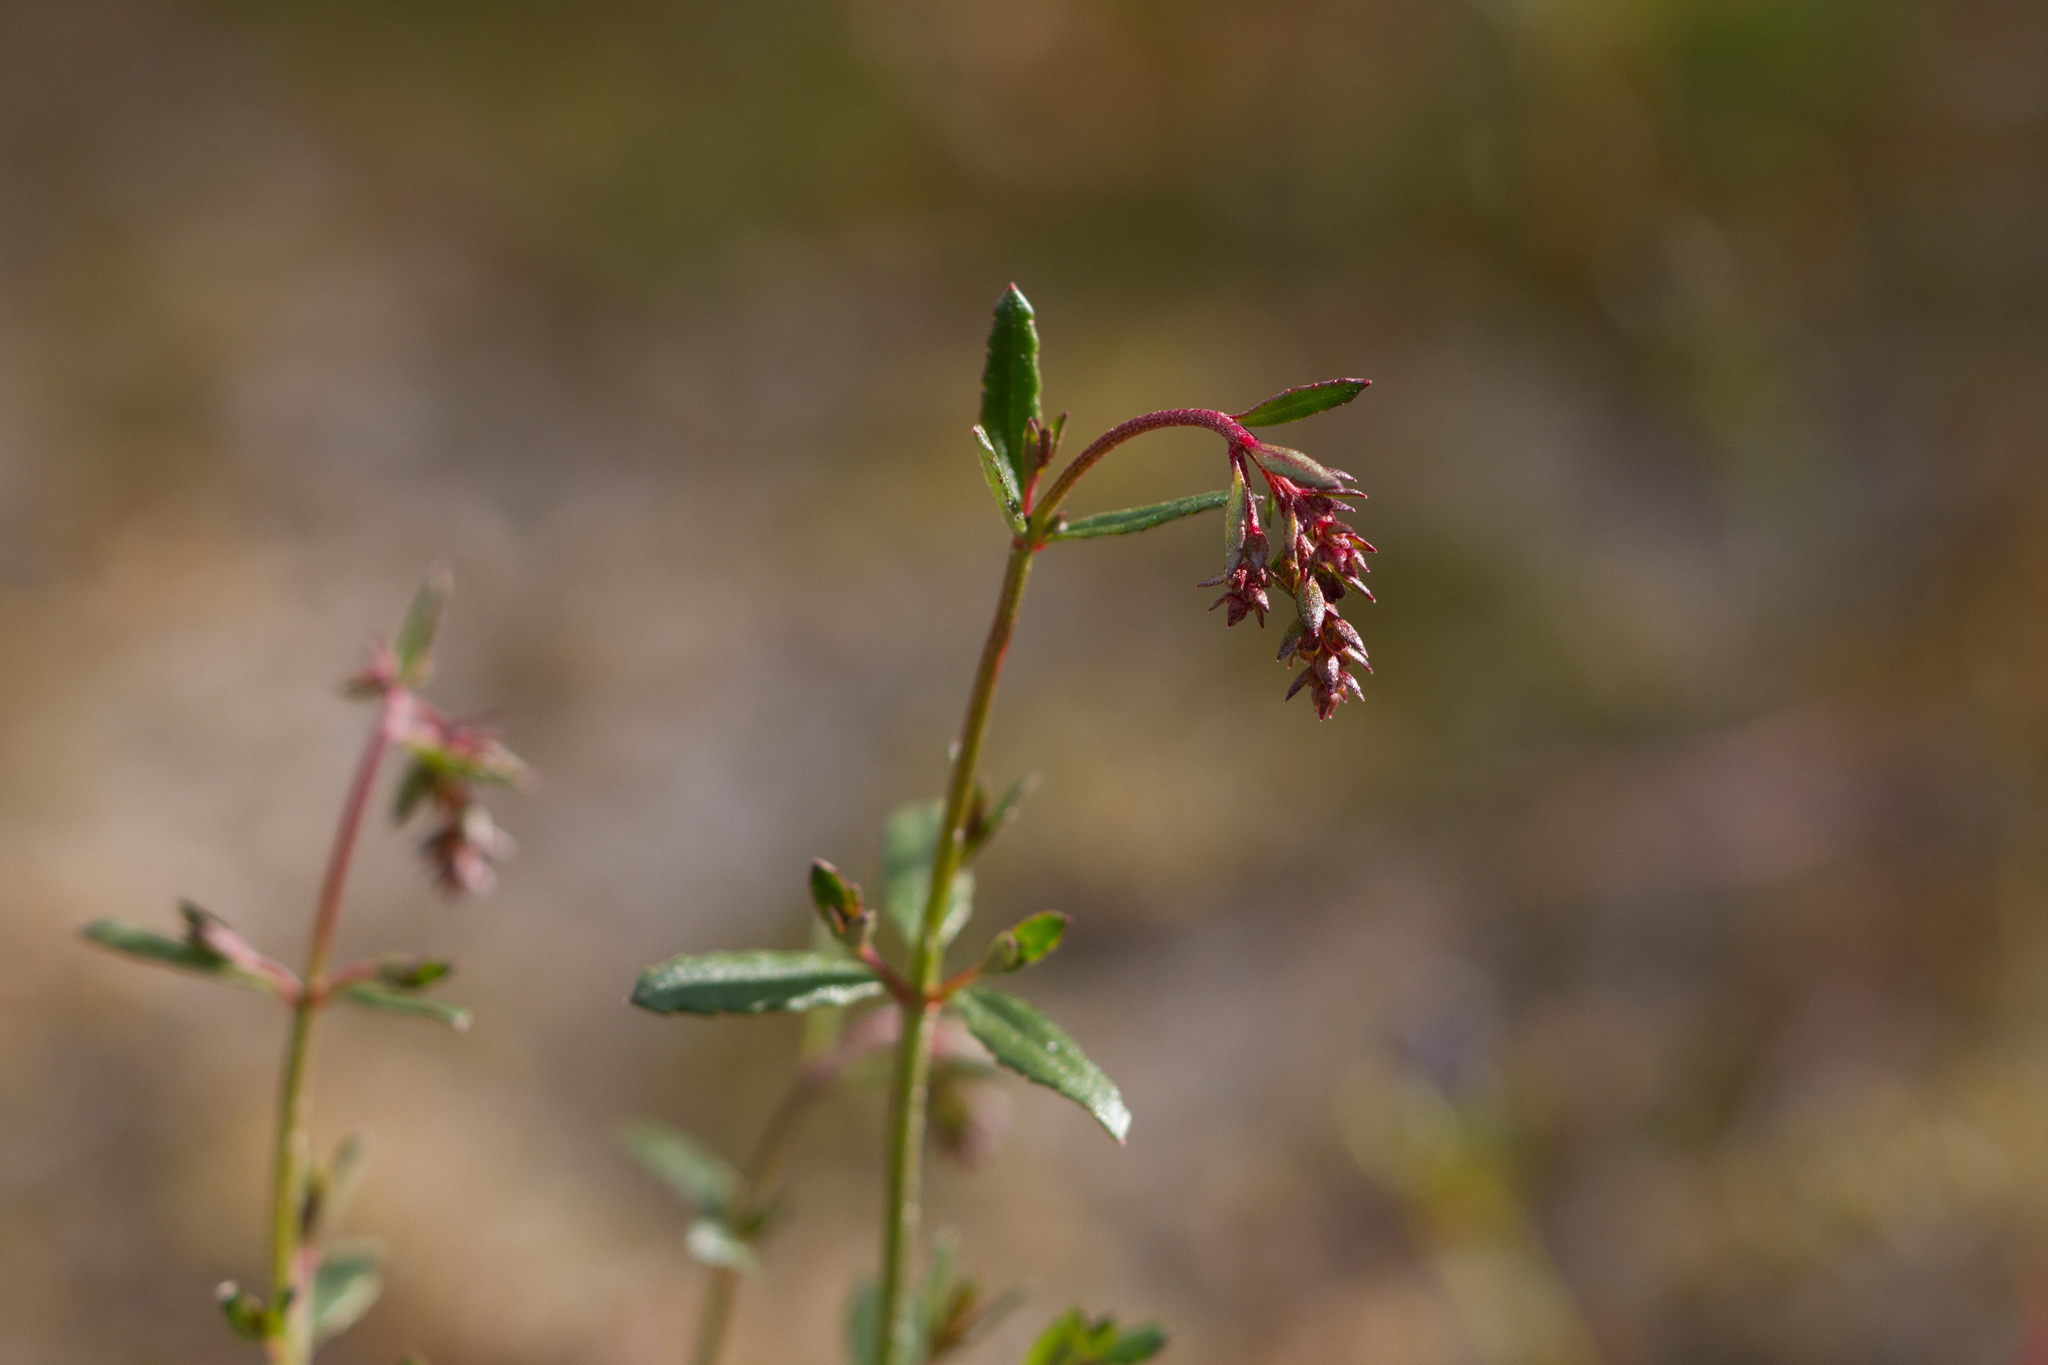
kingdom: Plantae
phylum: Tracheophyta
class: Magnoliopsida
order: Saxifragales
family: Haloragaceae
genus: Gonocarpus
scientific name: Gonocarpus tetragynus
